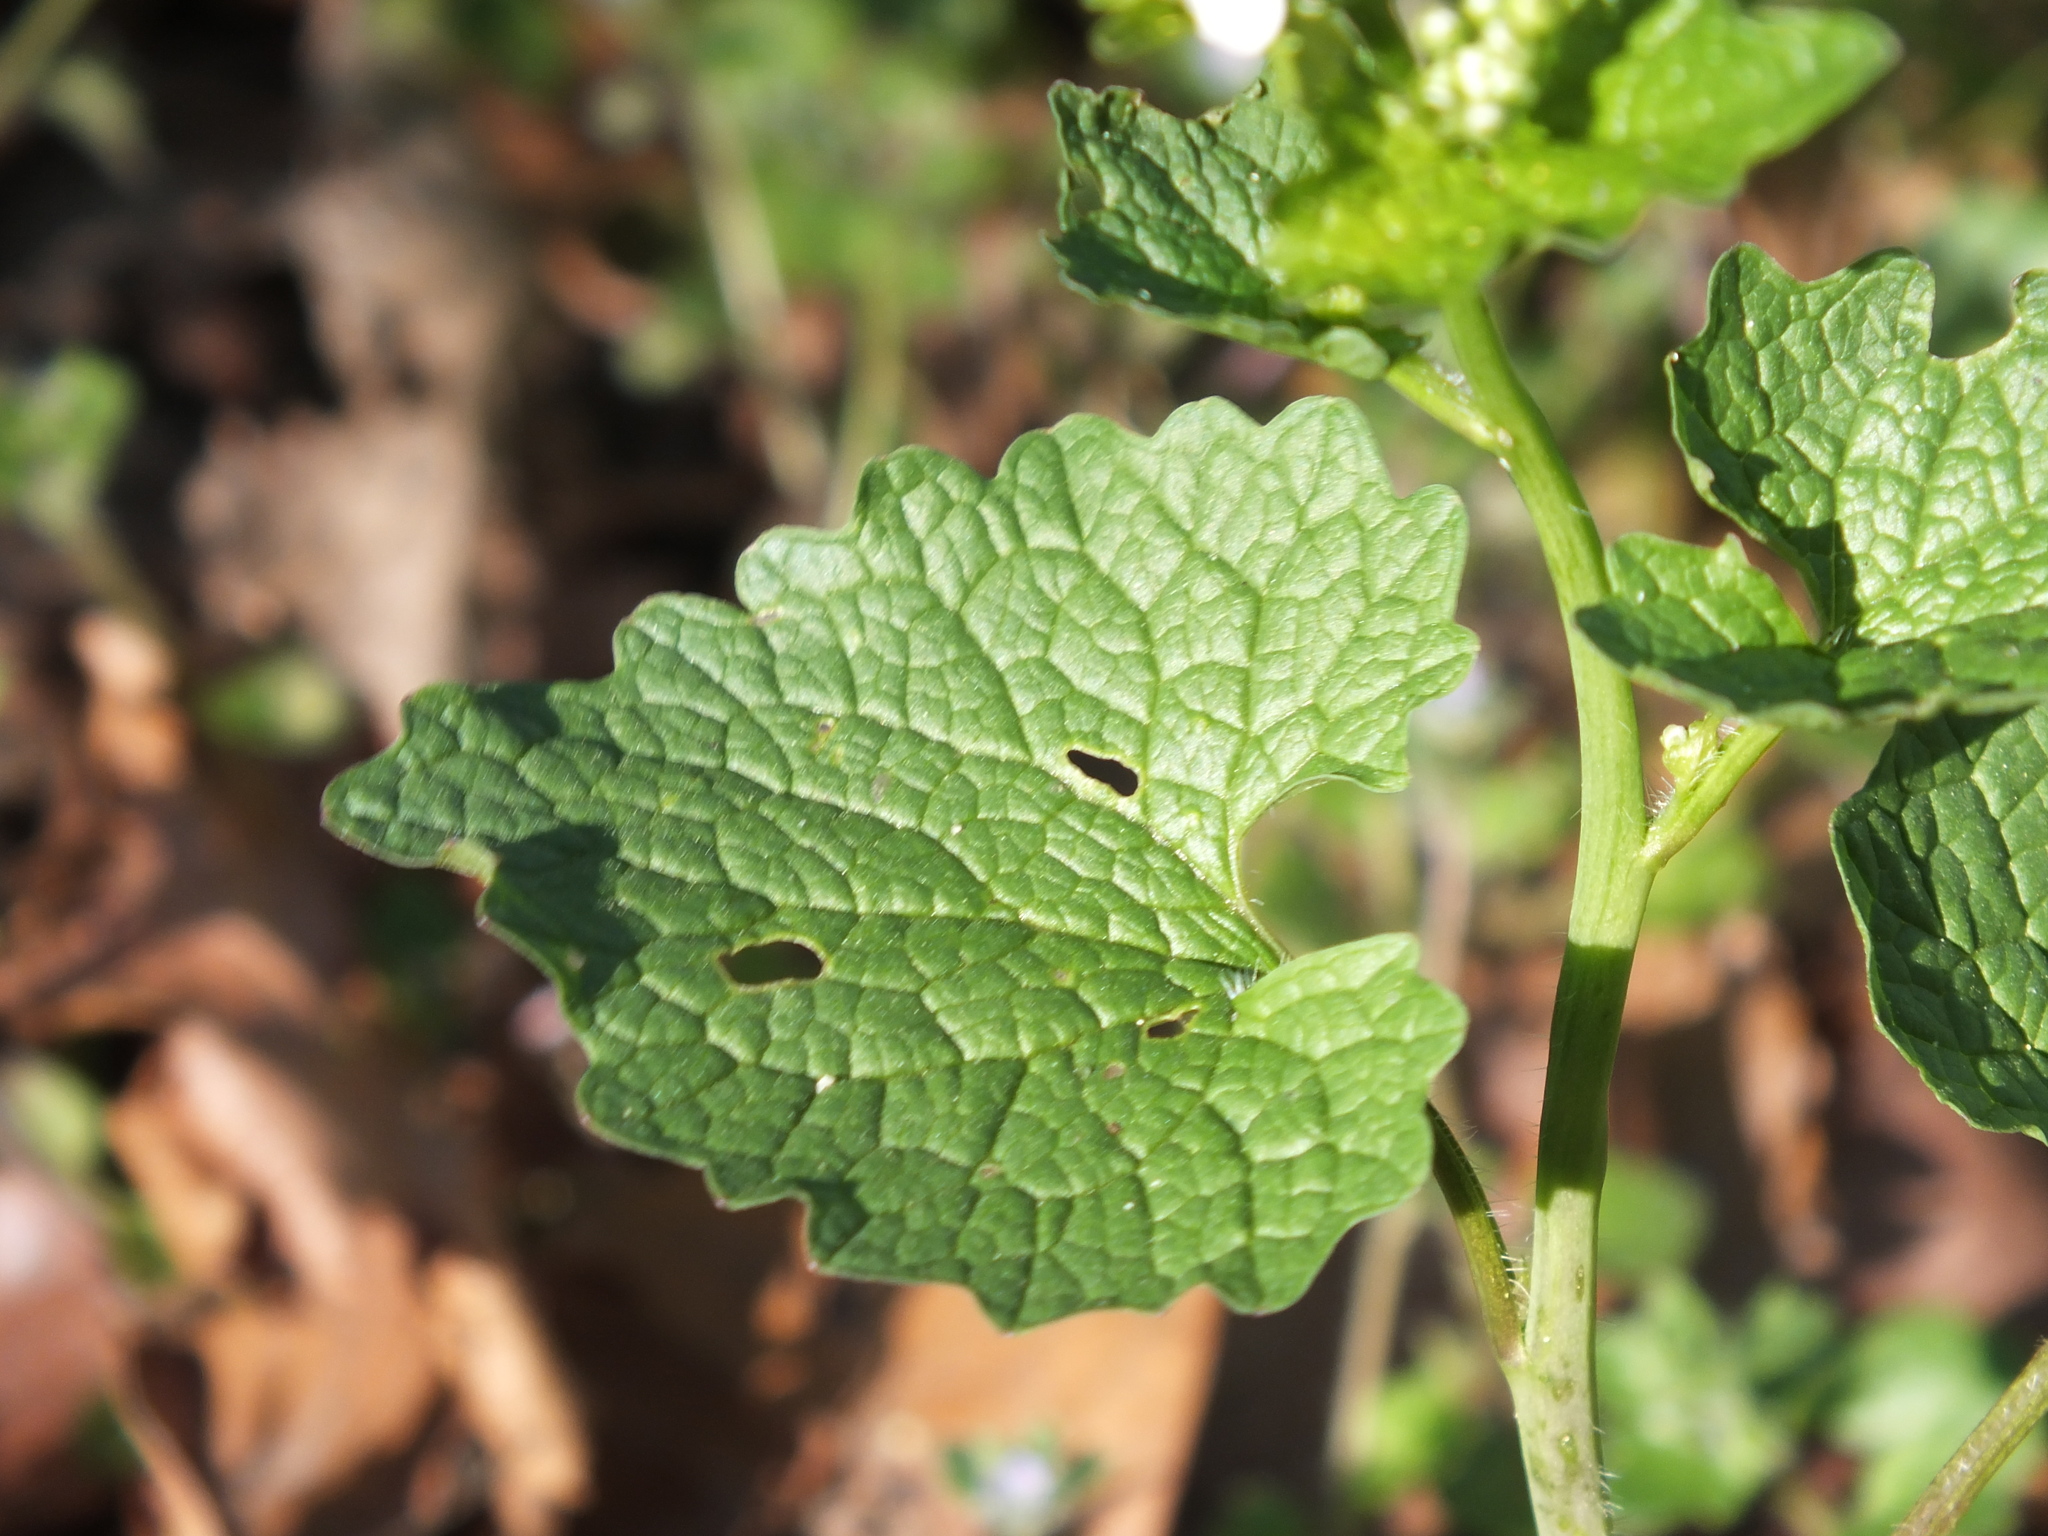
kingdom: Plantae
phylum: Tracheophyta
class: Magnoliopsida
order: Brassicales
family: Brassicaceae
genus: Alliaria
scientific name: Alliaria petiolata
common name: Garlic mustard
